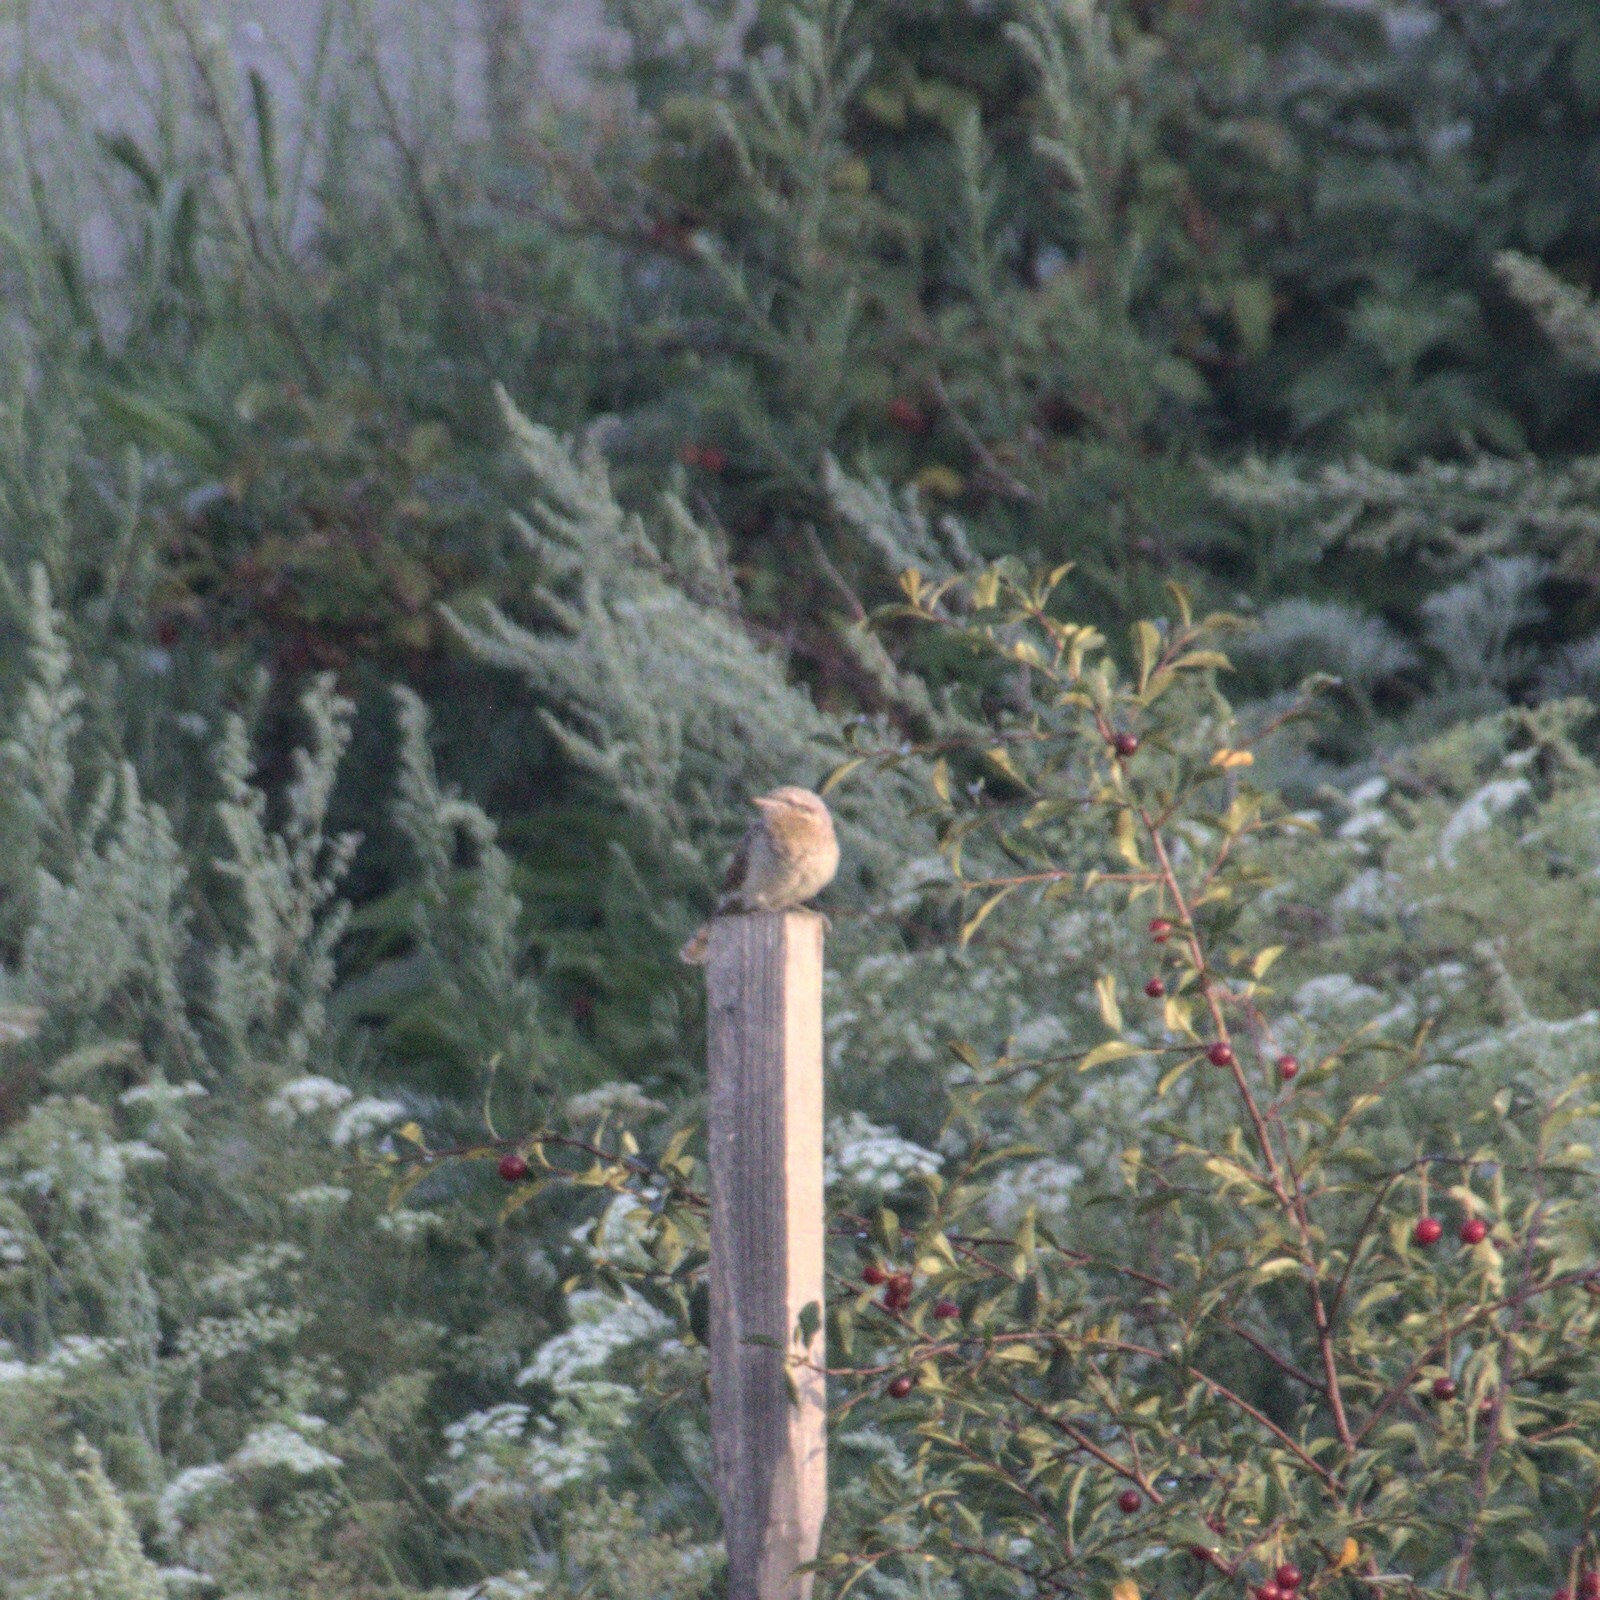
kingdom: Animalia
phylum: Chordata
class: Aves
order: Piciformes
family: Picidae
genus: Jynx
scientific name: Jynx torquilla
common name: Eurasian wryneck
